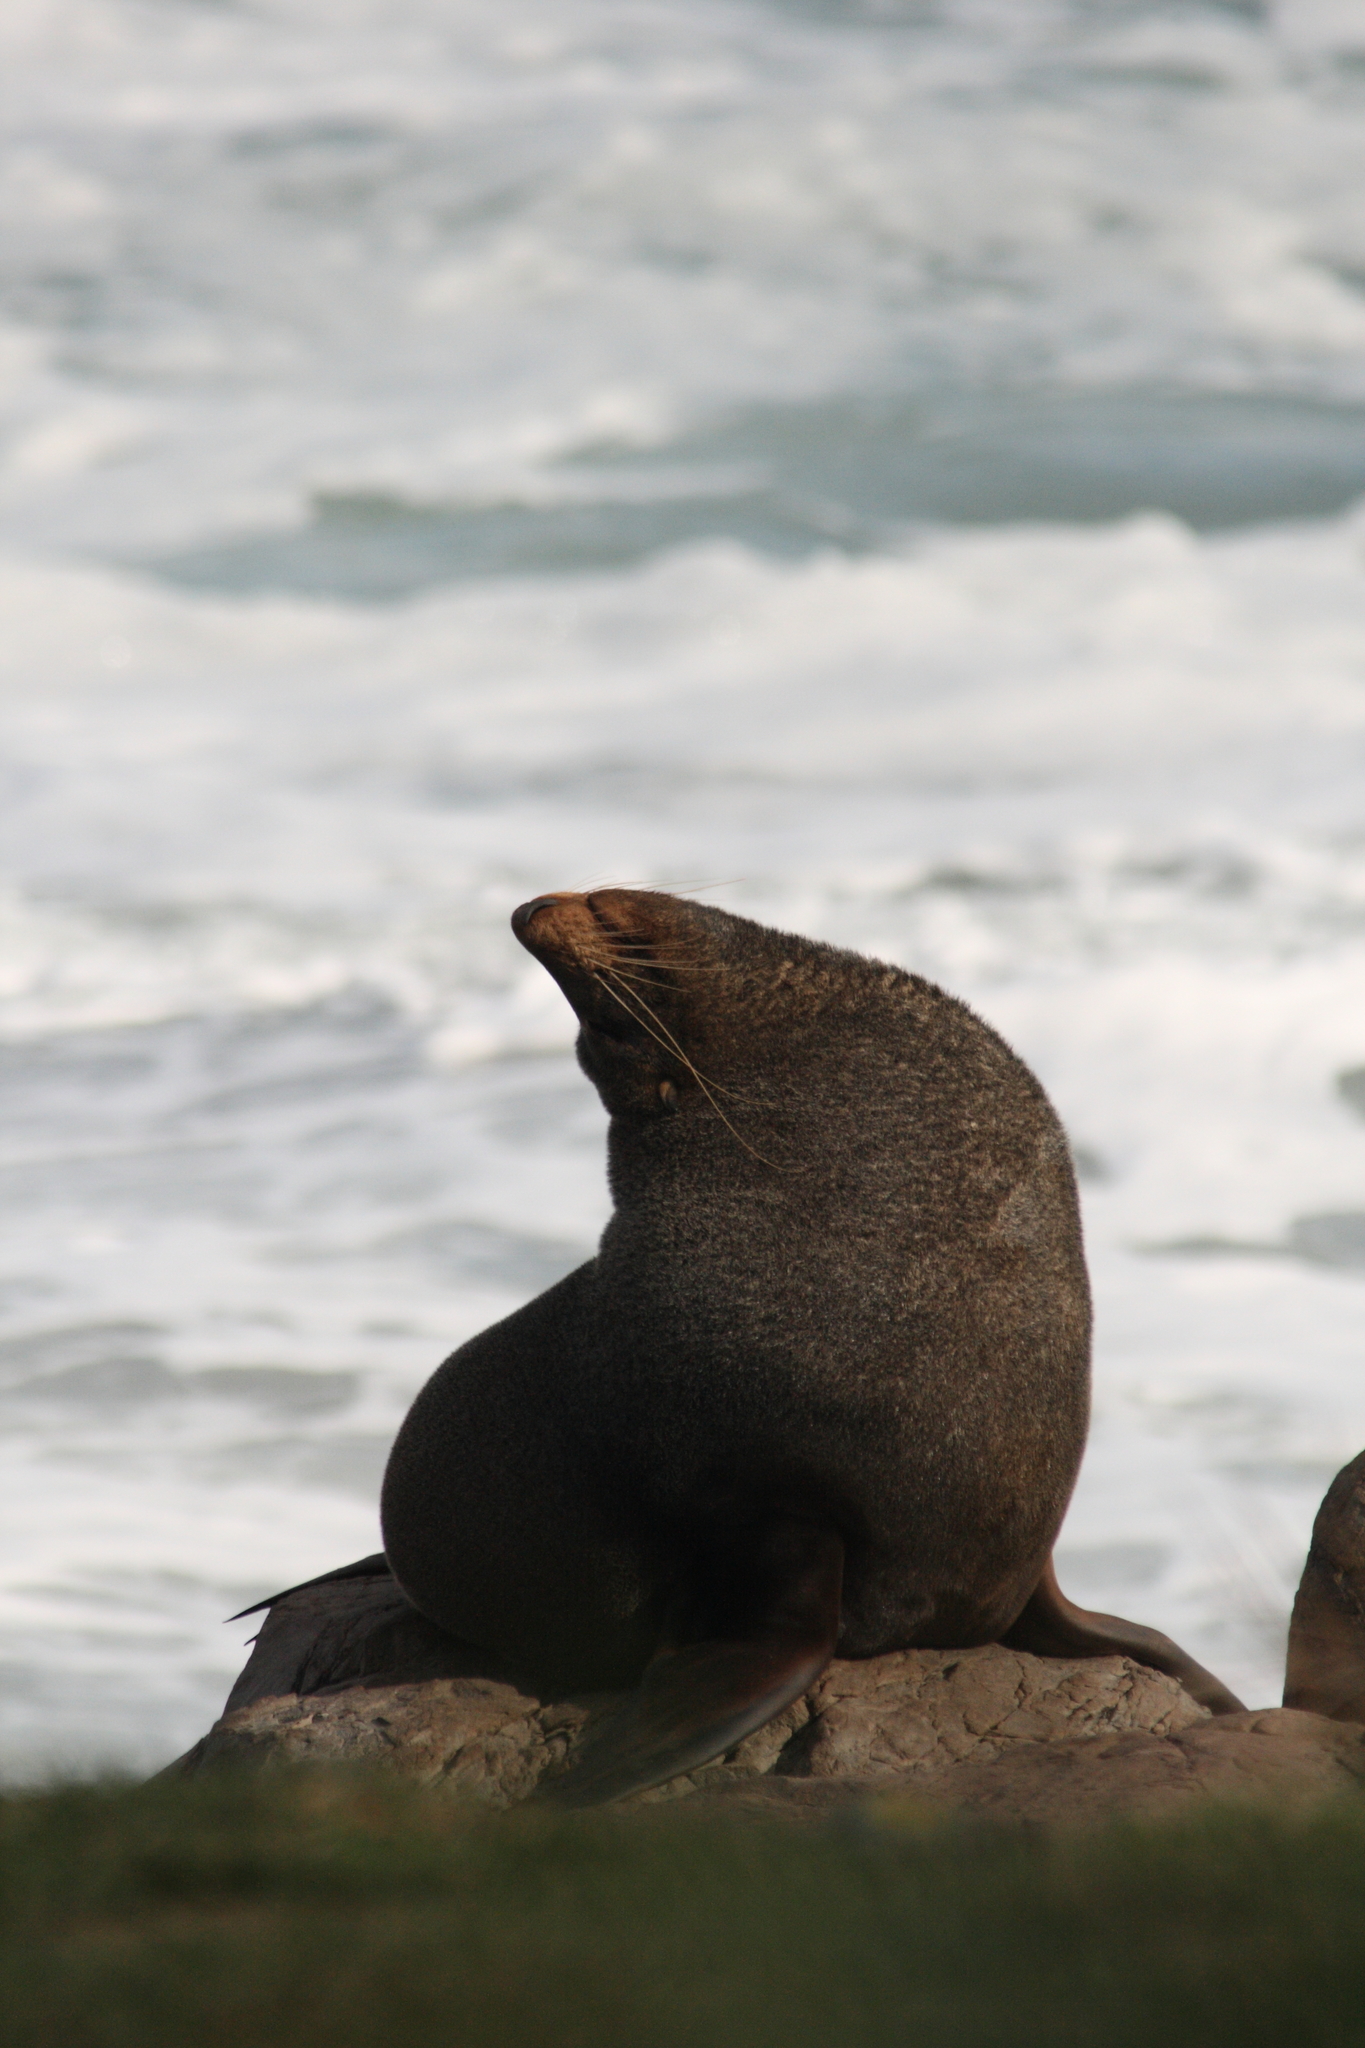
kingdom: Animalia
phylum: Chordata
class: Mammalia
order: Carnivora
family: Otariidae
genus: Arctocephalus
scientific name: Arctocephalus forsteri
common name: New zealand fur seal
